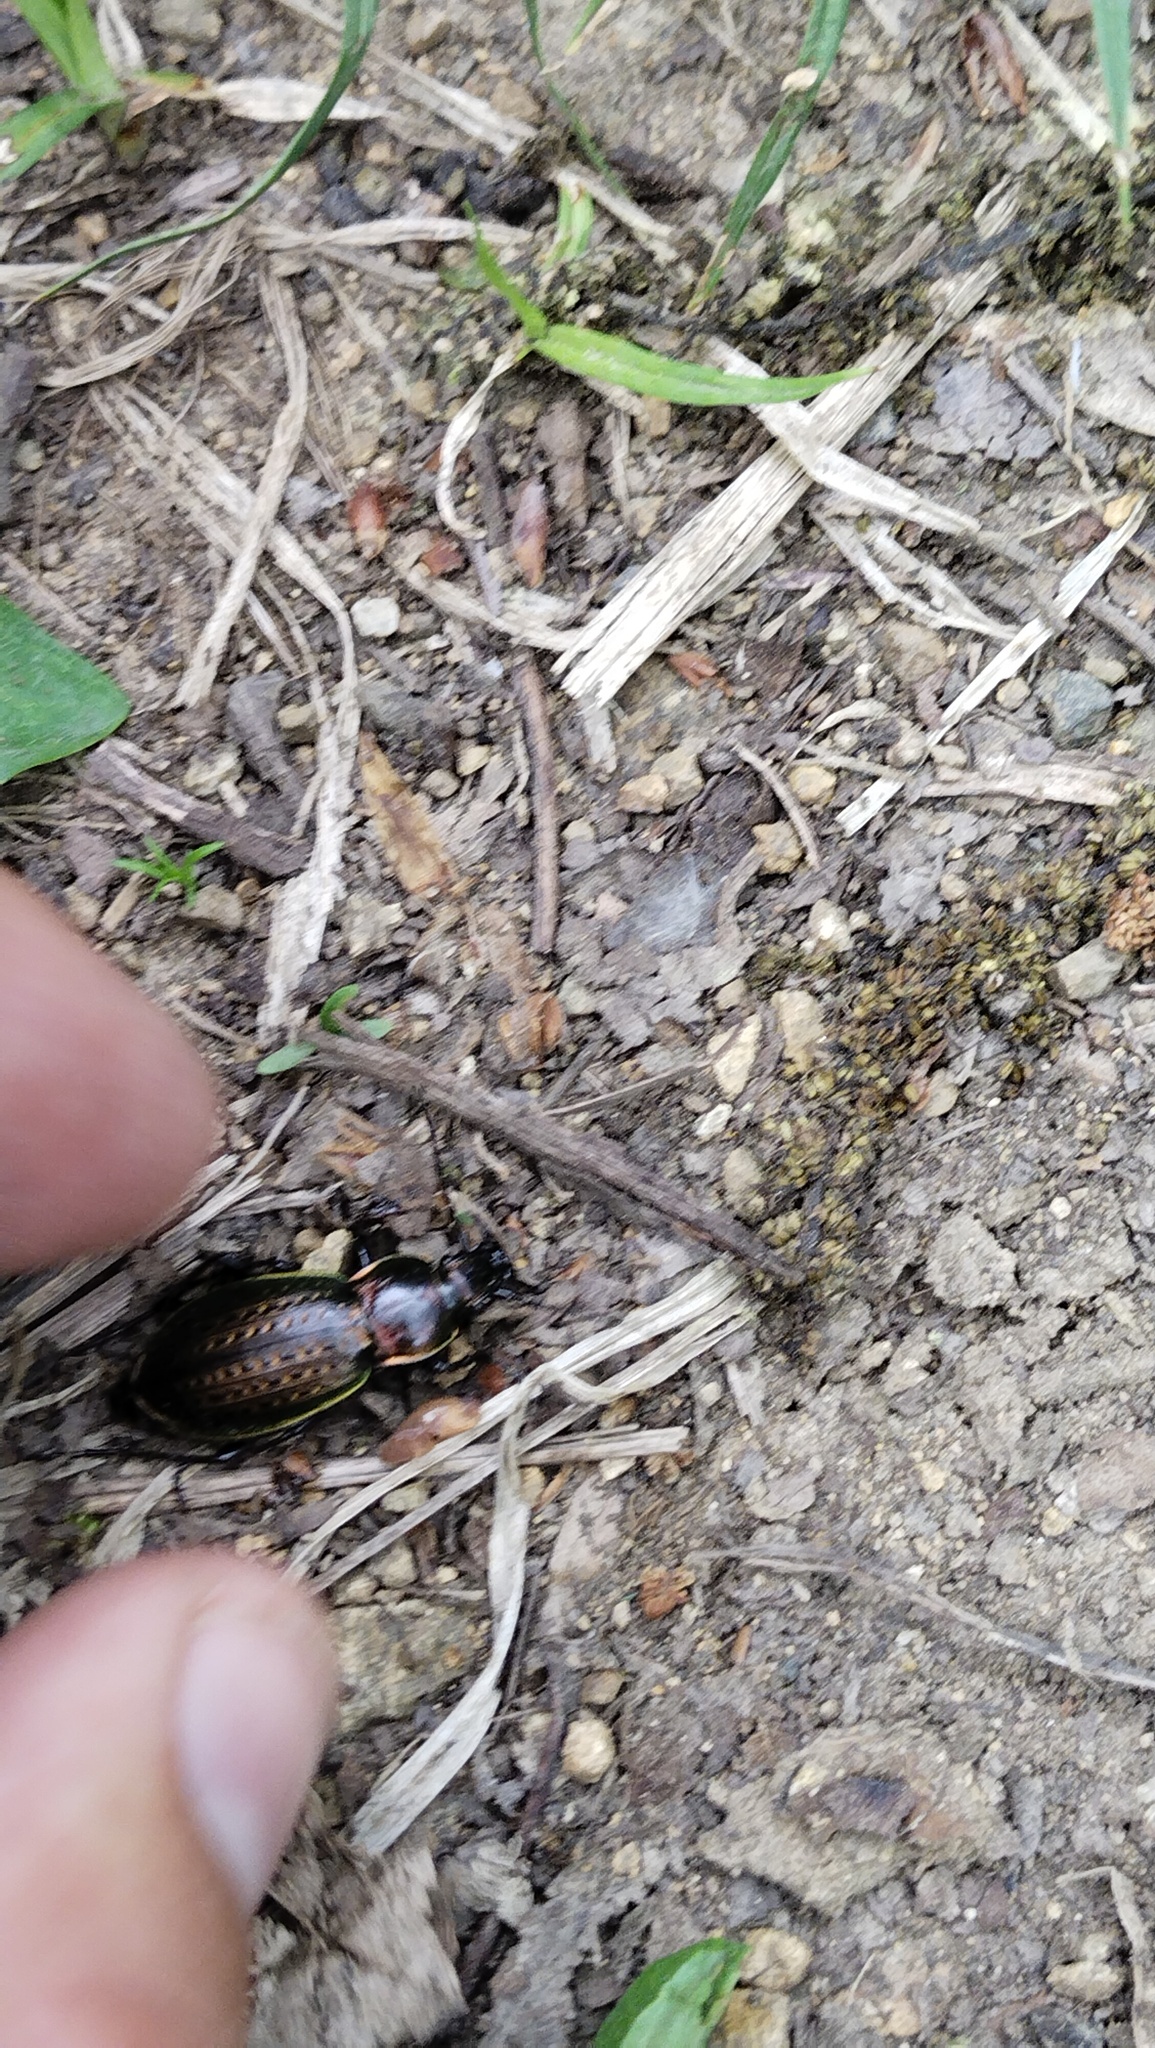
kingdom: Animalia
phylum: Arthropoda
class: Insecta
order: Coleoptera
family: Carabidae
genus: Carabus
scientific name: Carabus billbergi
